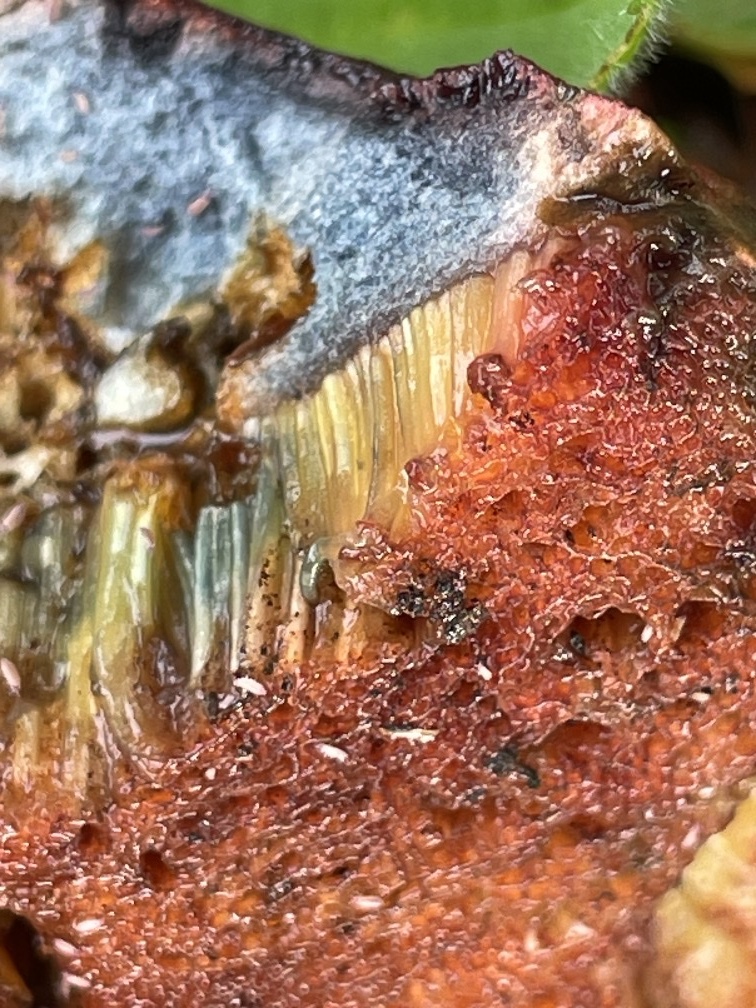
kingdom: Fungi
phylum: Basidiomycota
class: Agaricomycetes
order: Boletales
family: Boletaceae
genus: Suillellus
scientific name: Suillellus amygdalinus
